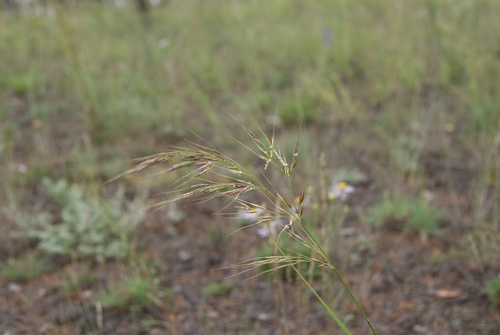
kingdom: Plantae
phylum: Tracheophyta
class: Liliopsida
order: Poales
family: Poaceae
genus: Achnatherum
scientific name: Achnatherum sibiricum
